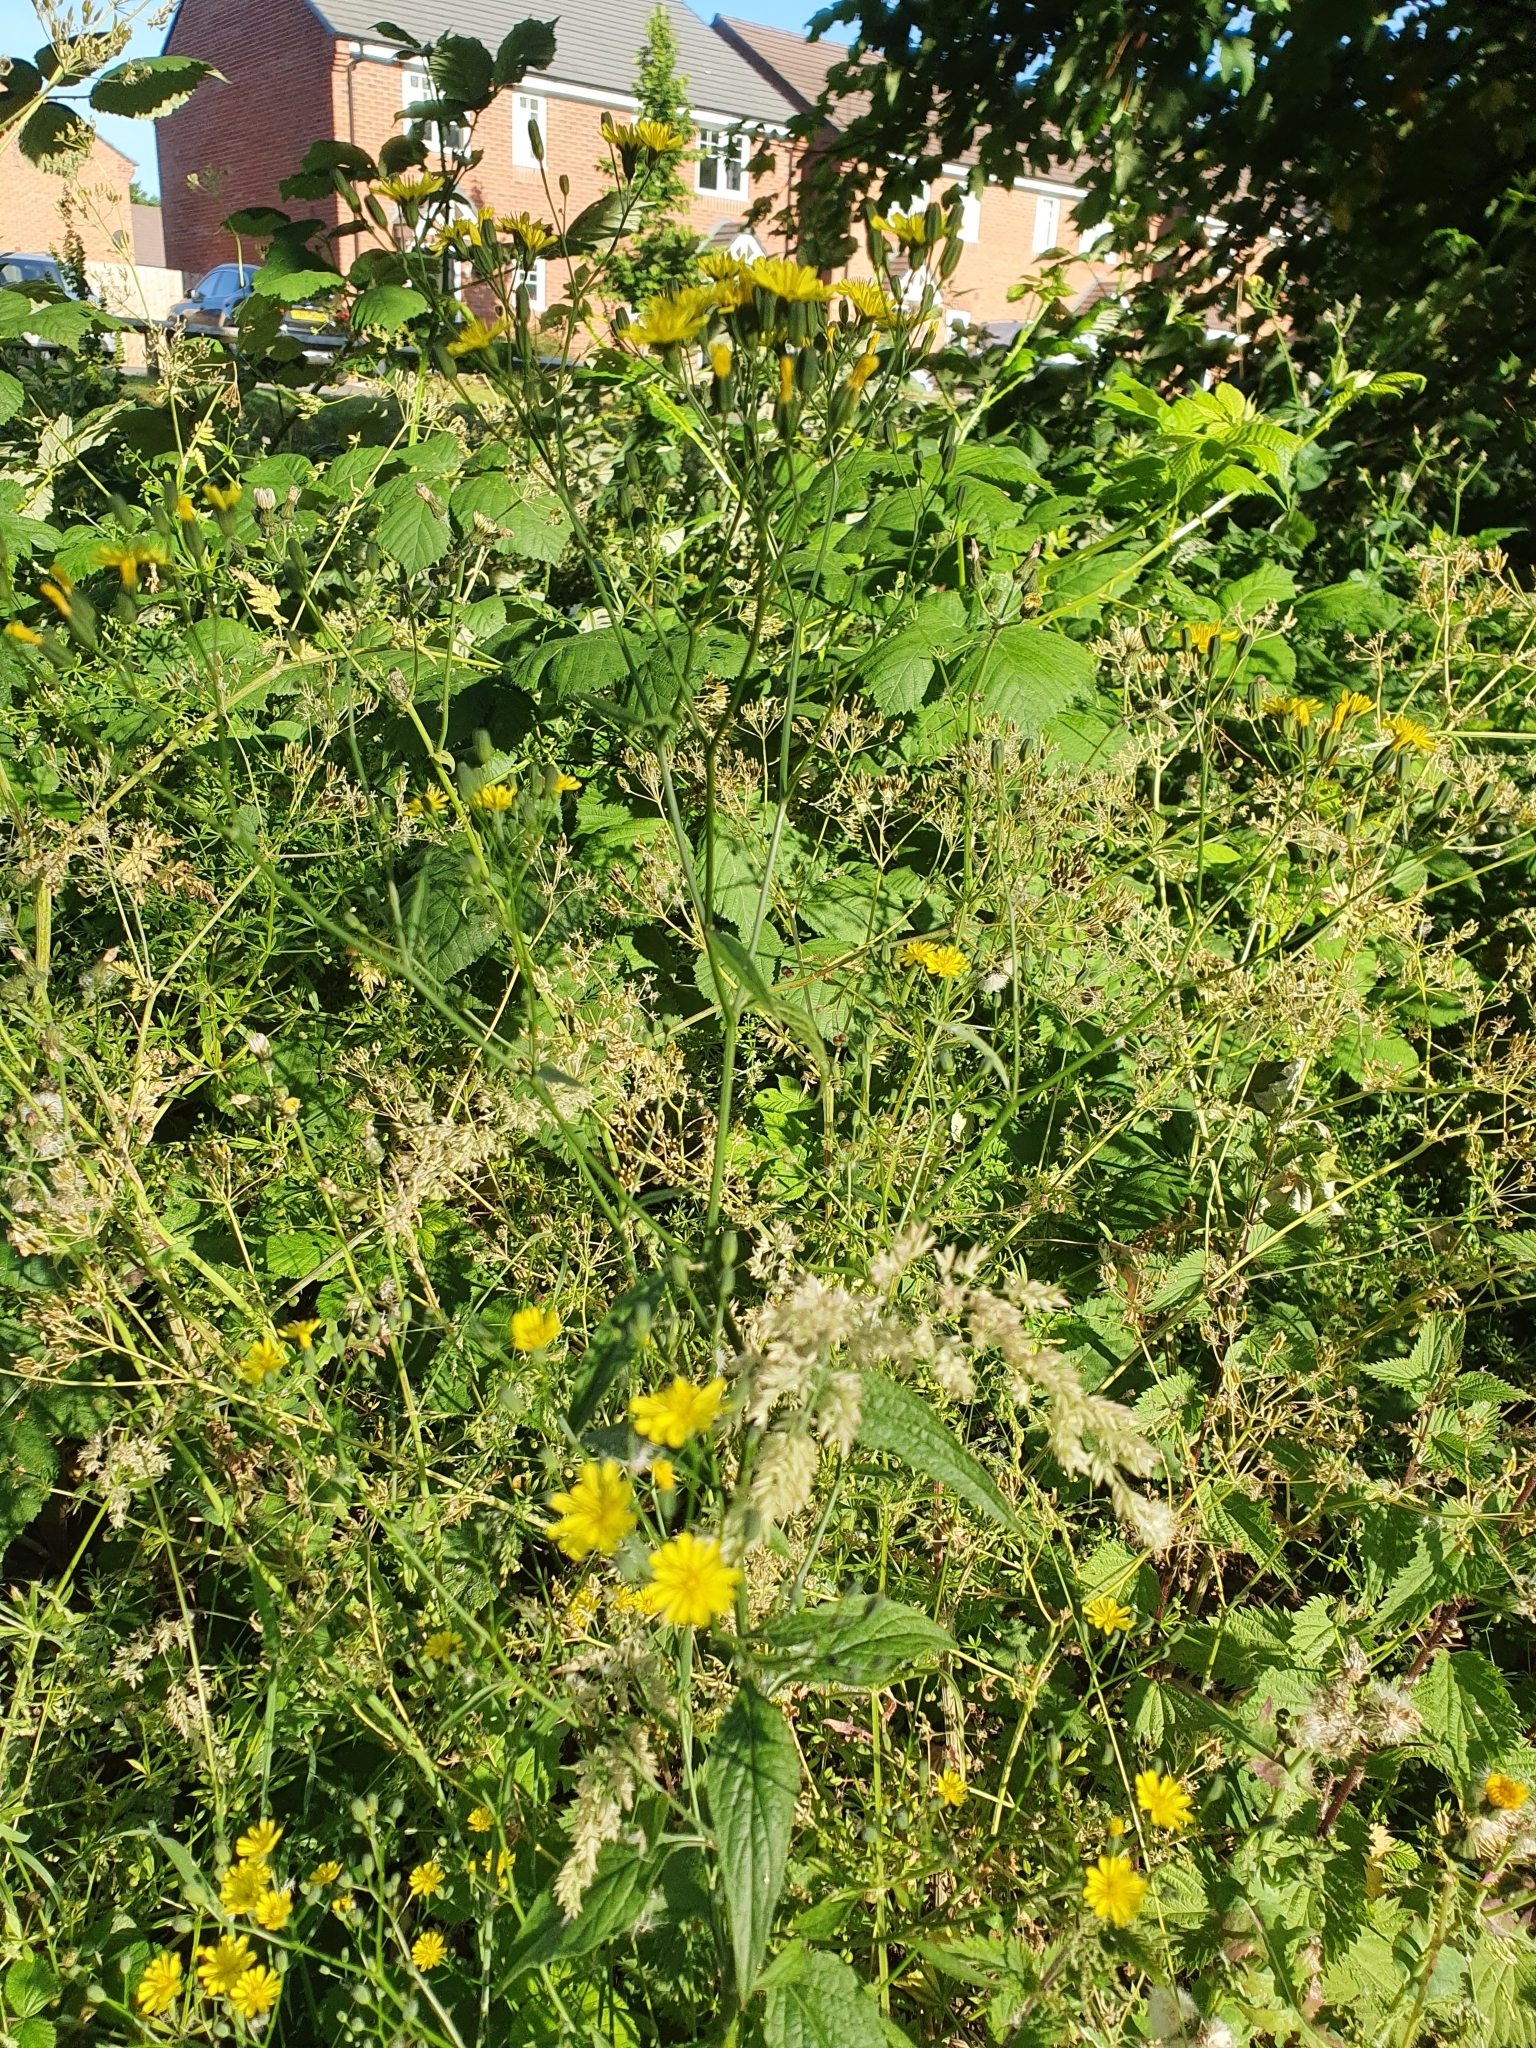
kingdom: Plantae
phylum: Tracheophyta
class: Magnoliopsida
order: Asterales
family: Asteraceae
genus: Lapsana
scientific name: Lapsana communis
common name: Nipplewort
